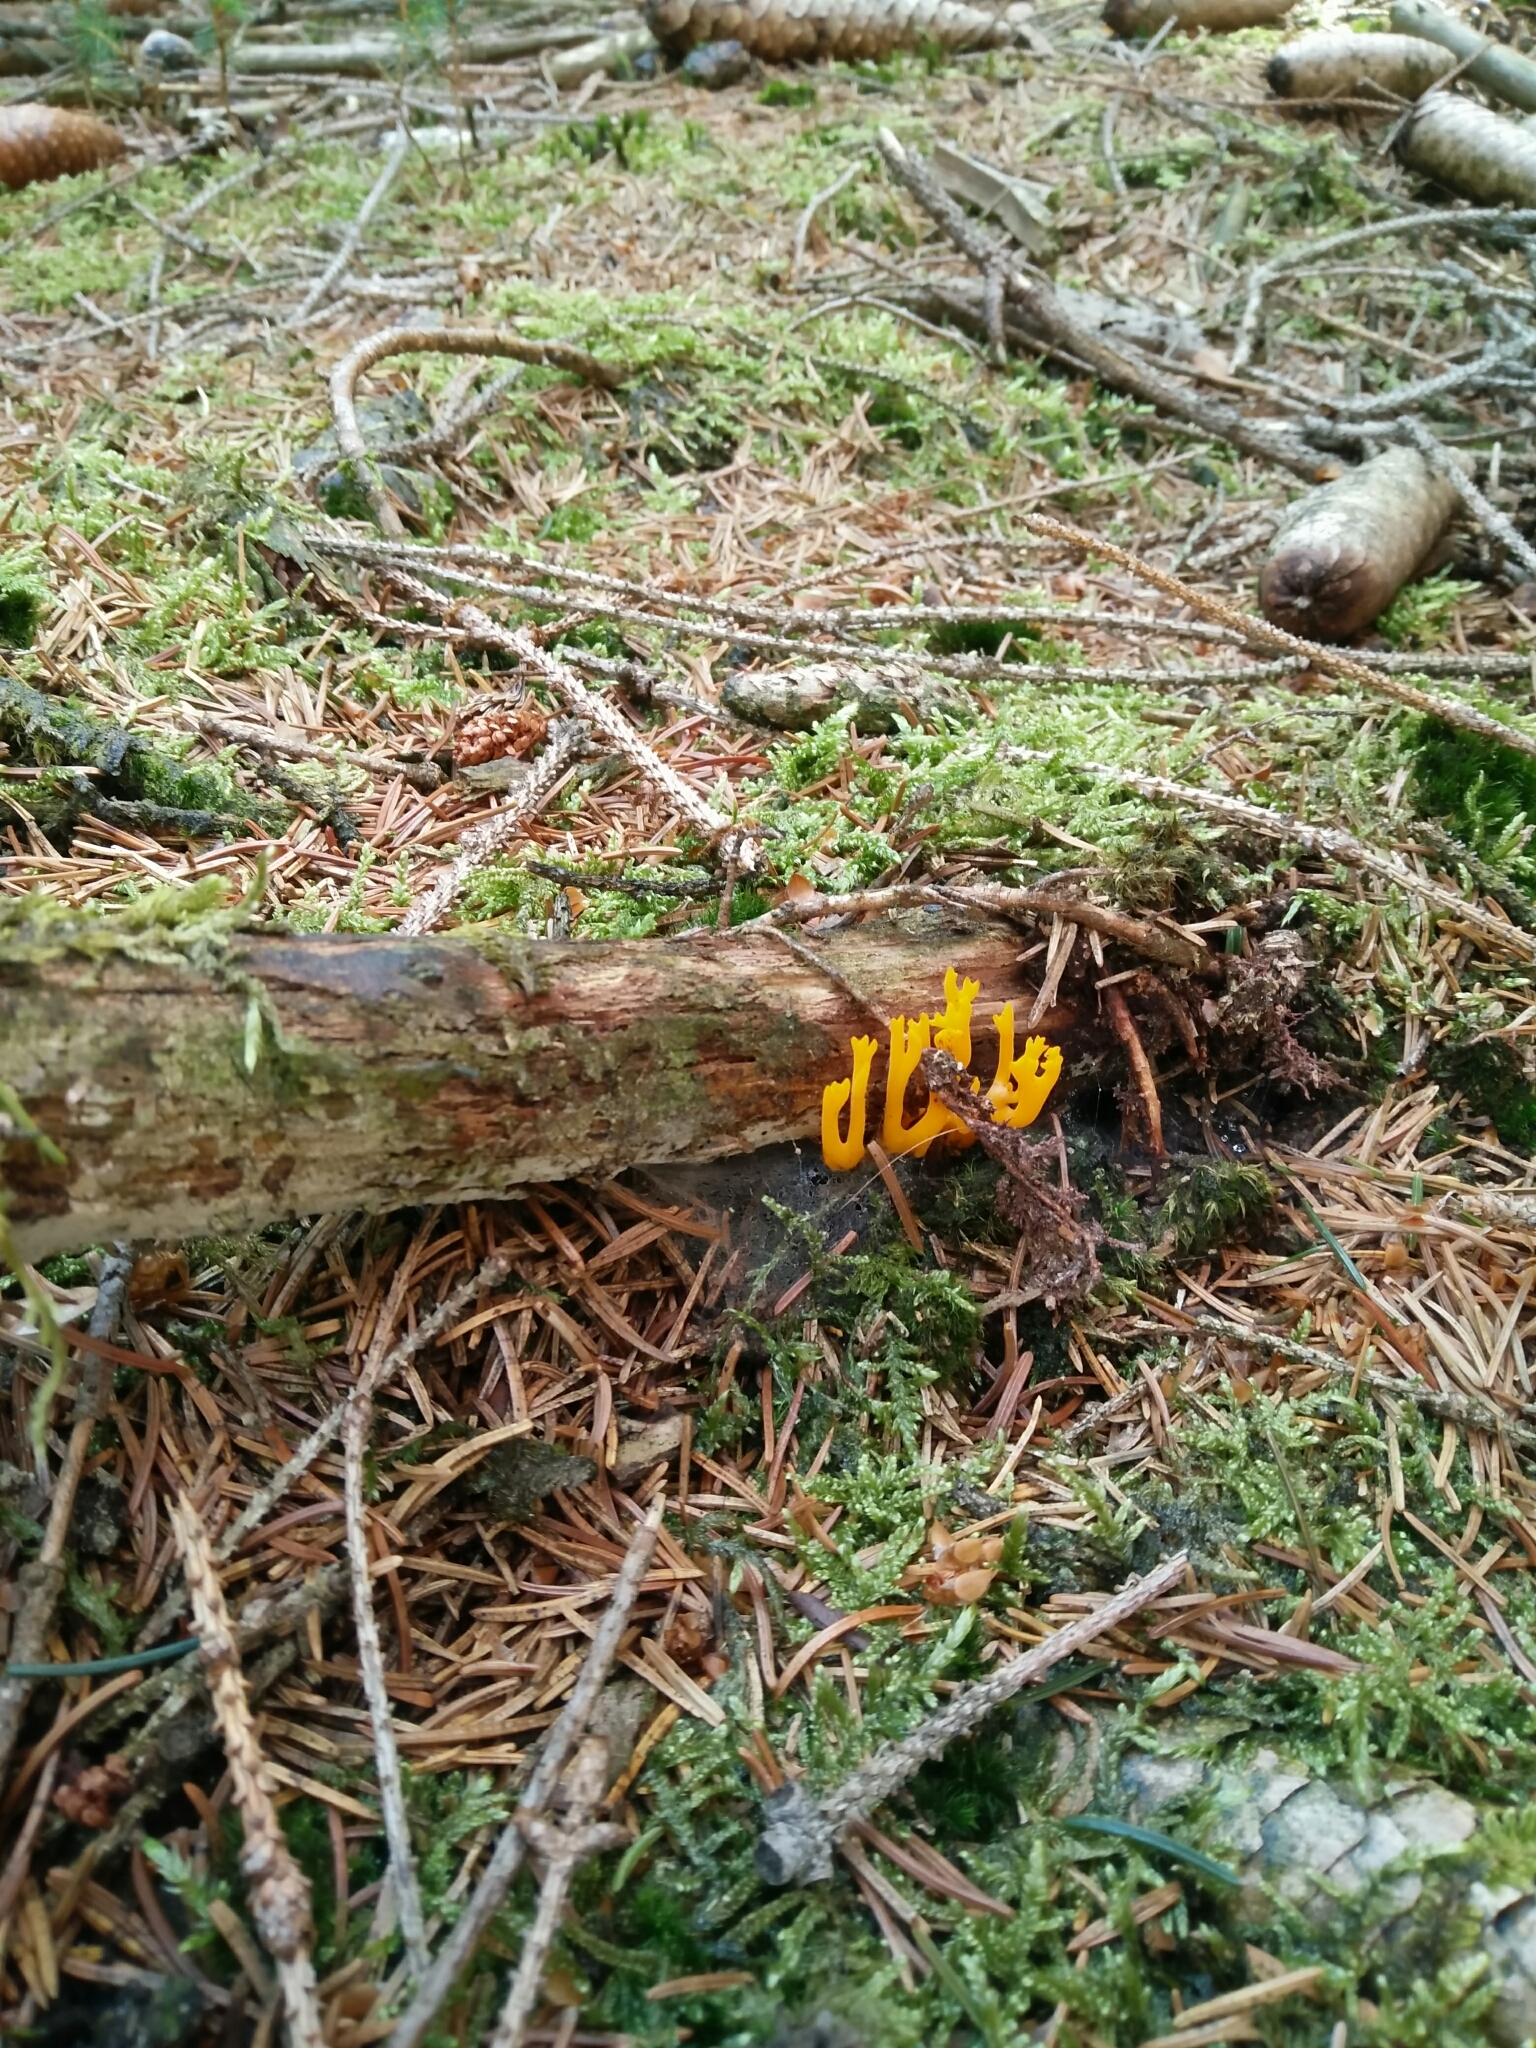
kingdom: Fungi
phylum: Basidiomycota
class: Dacrymycetes
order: Dacrymycetales
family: Dacrymycetaceae
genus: Calocera
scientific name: Calocera viscosa
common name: Yellow stagshorn
